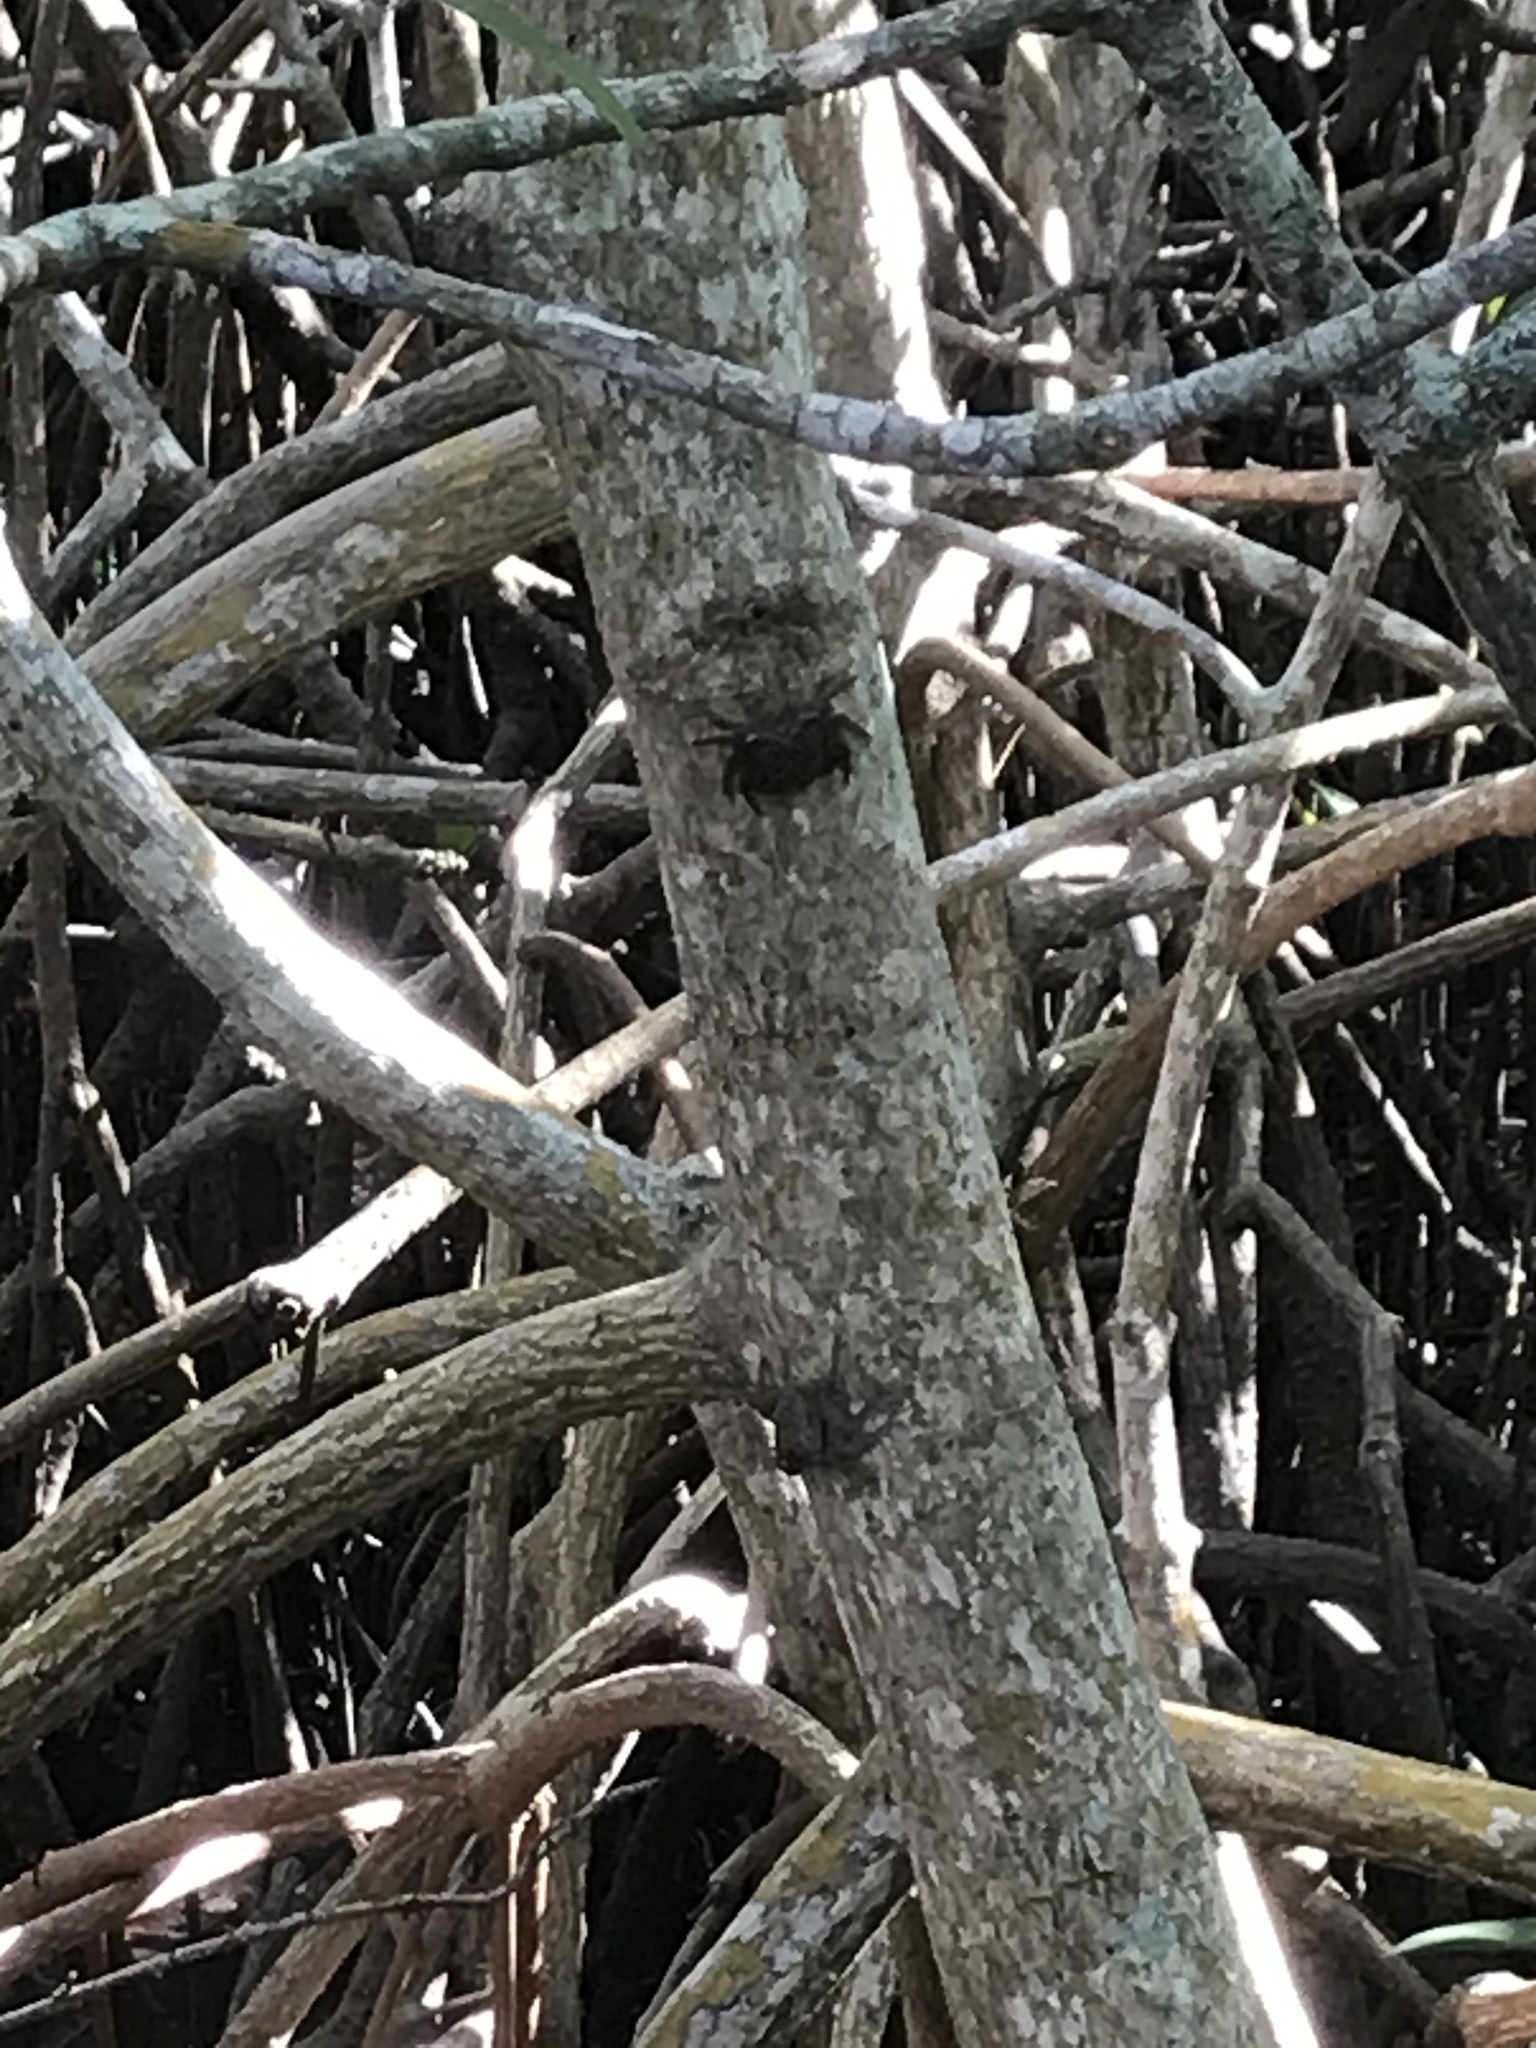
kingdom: Animalia
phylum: Arthropoda
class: Malacostraca
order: Decapoda
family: Sesarmidae
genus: Aratus
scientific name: Aratus pisonii
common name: Mangrove crab
